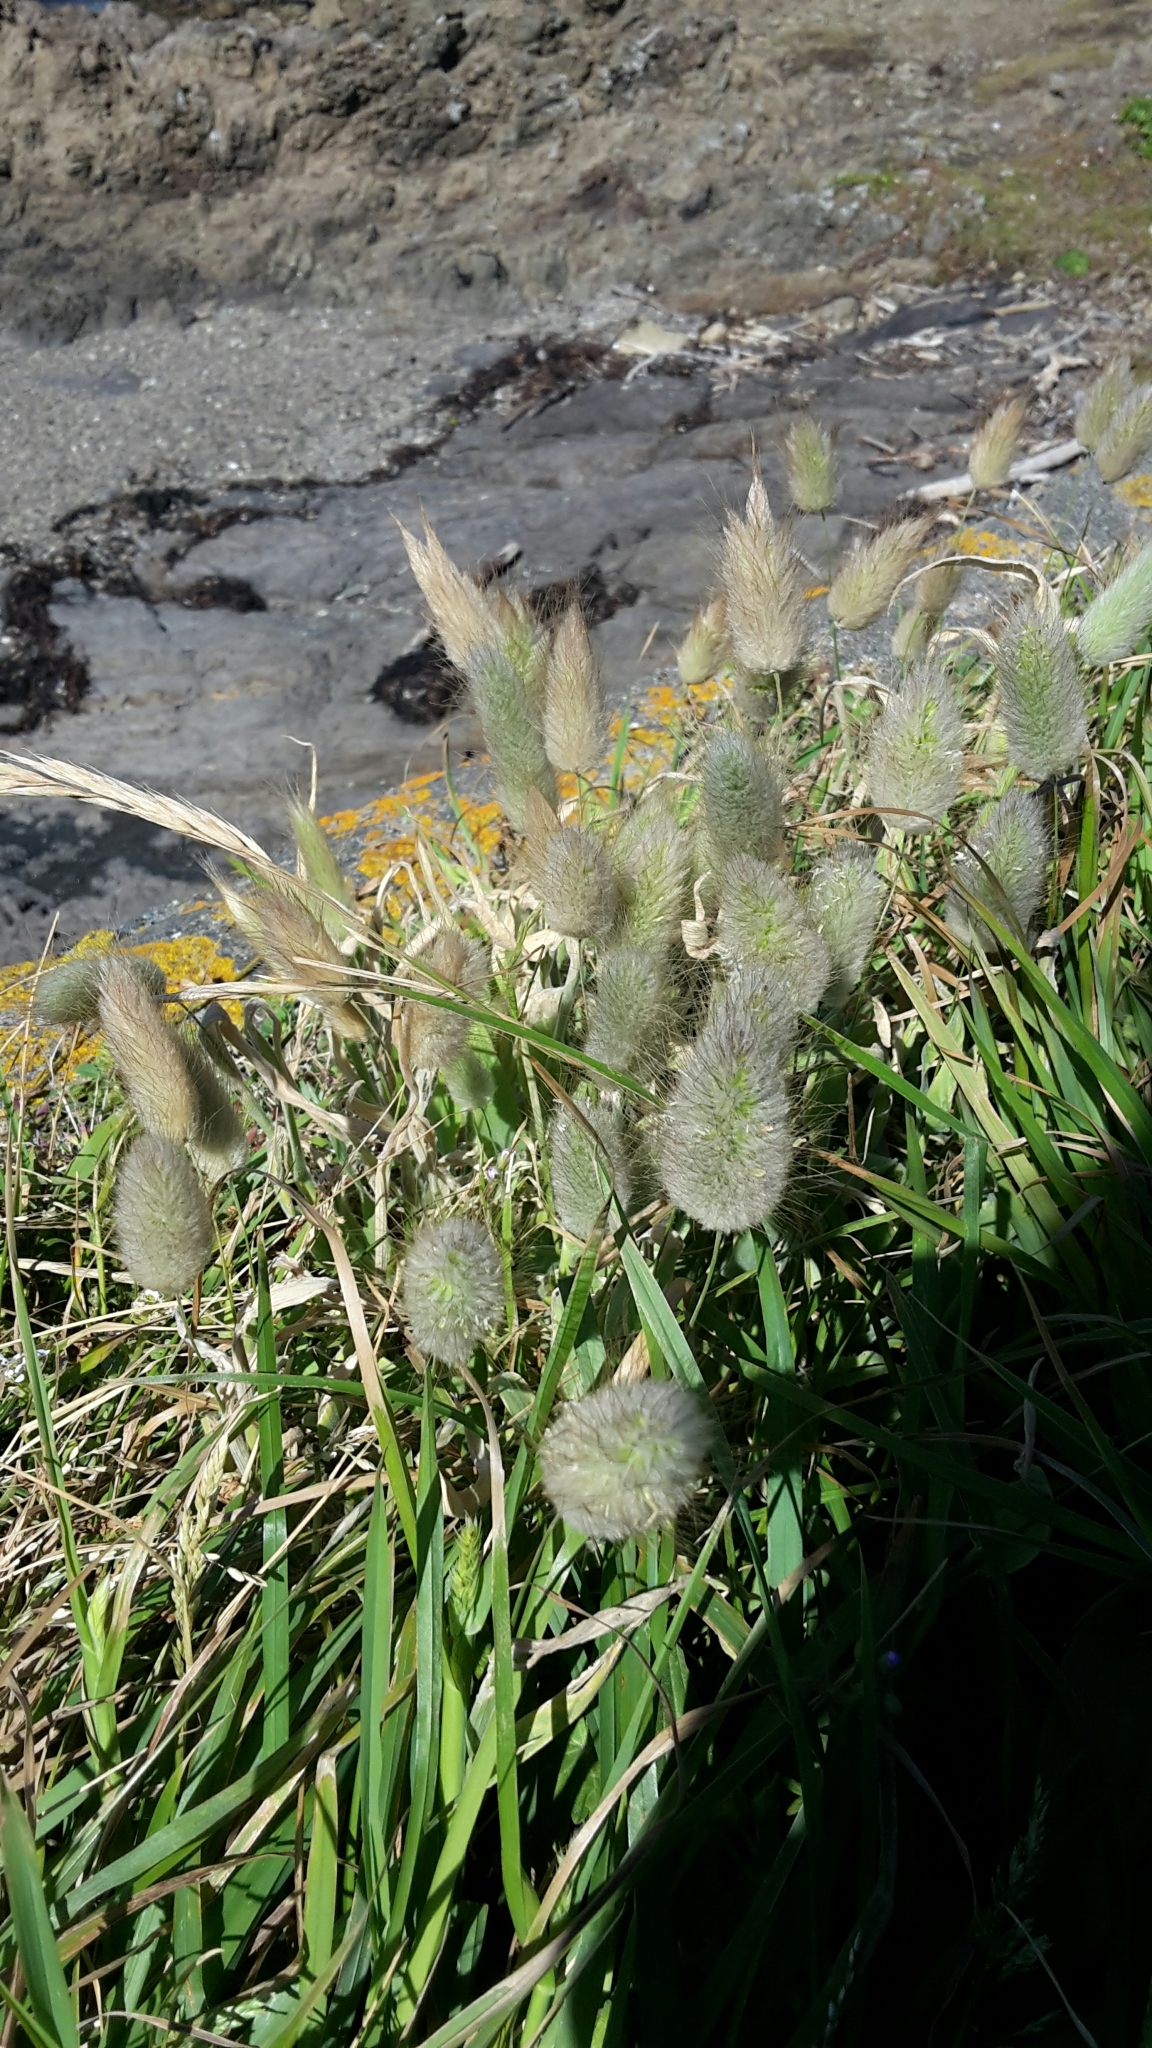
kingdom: Plantae
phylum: Tracheophyta
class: Liliopsida
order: Poales
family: Poaceae
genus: Lagurus
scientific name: Lagurus ovatus
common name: Hare's-tail
